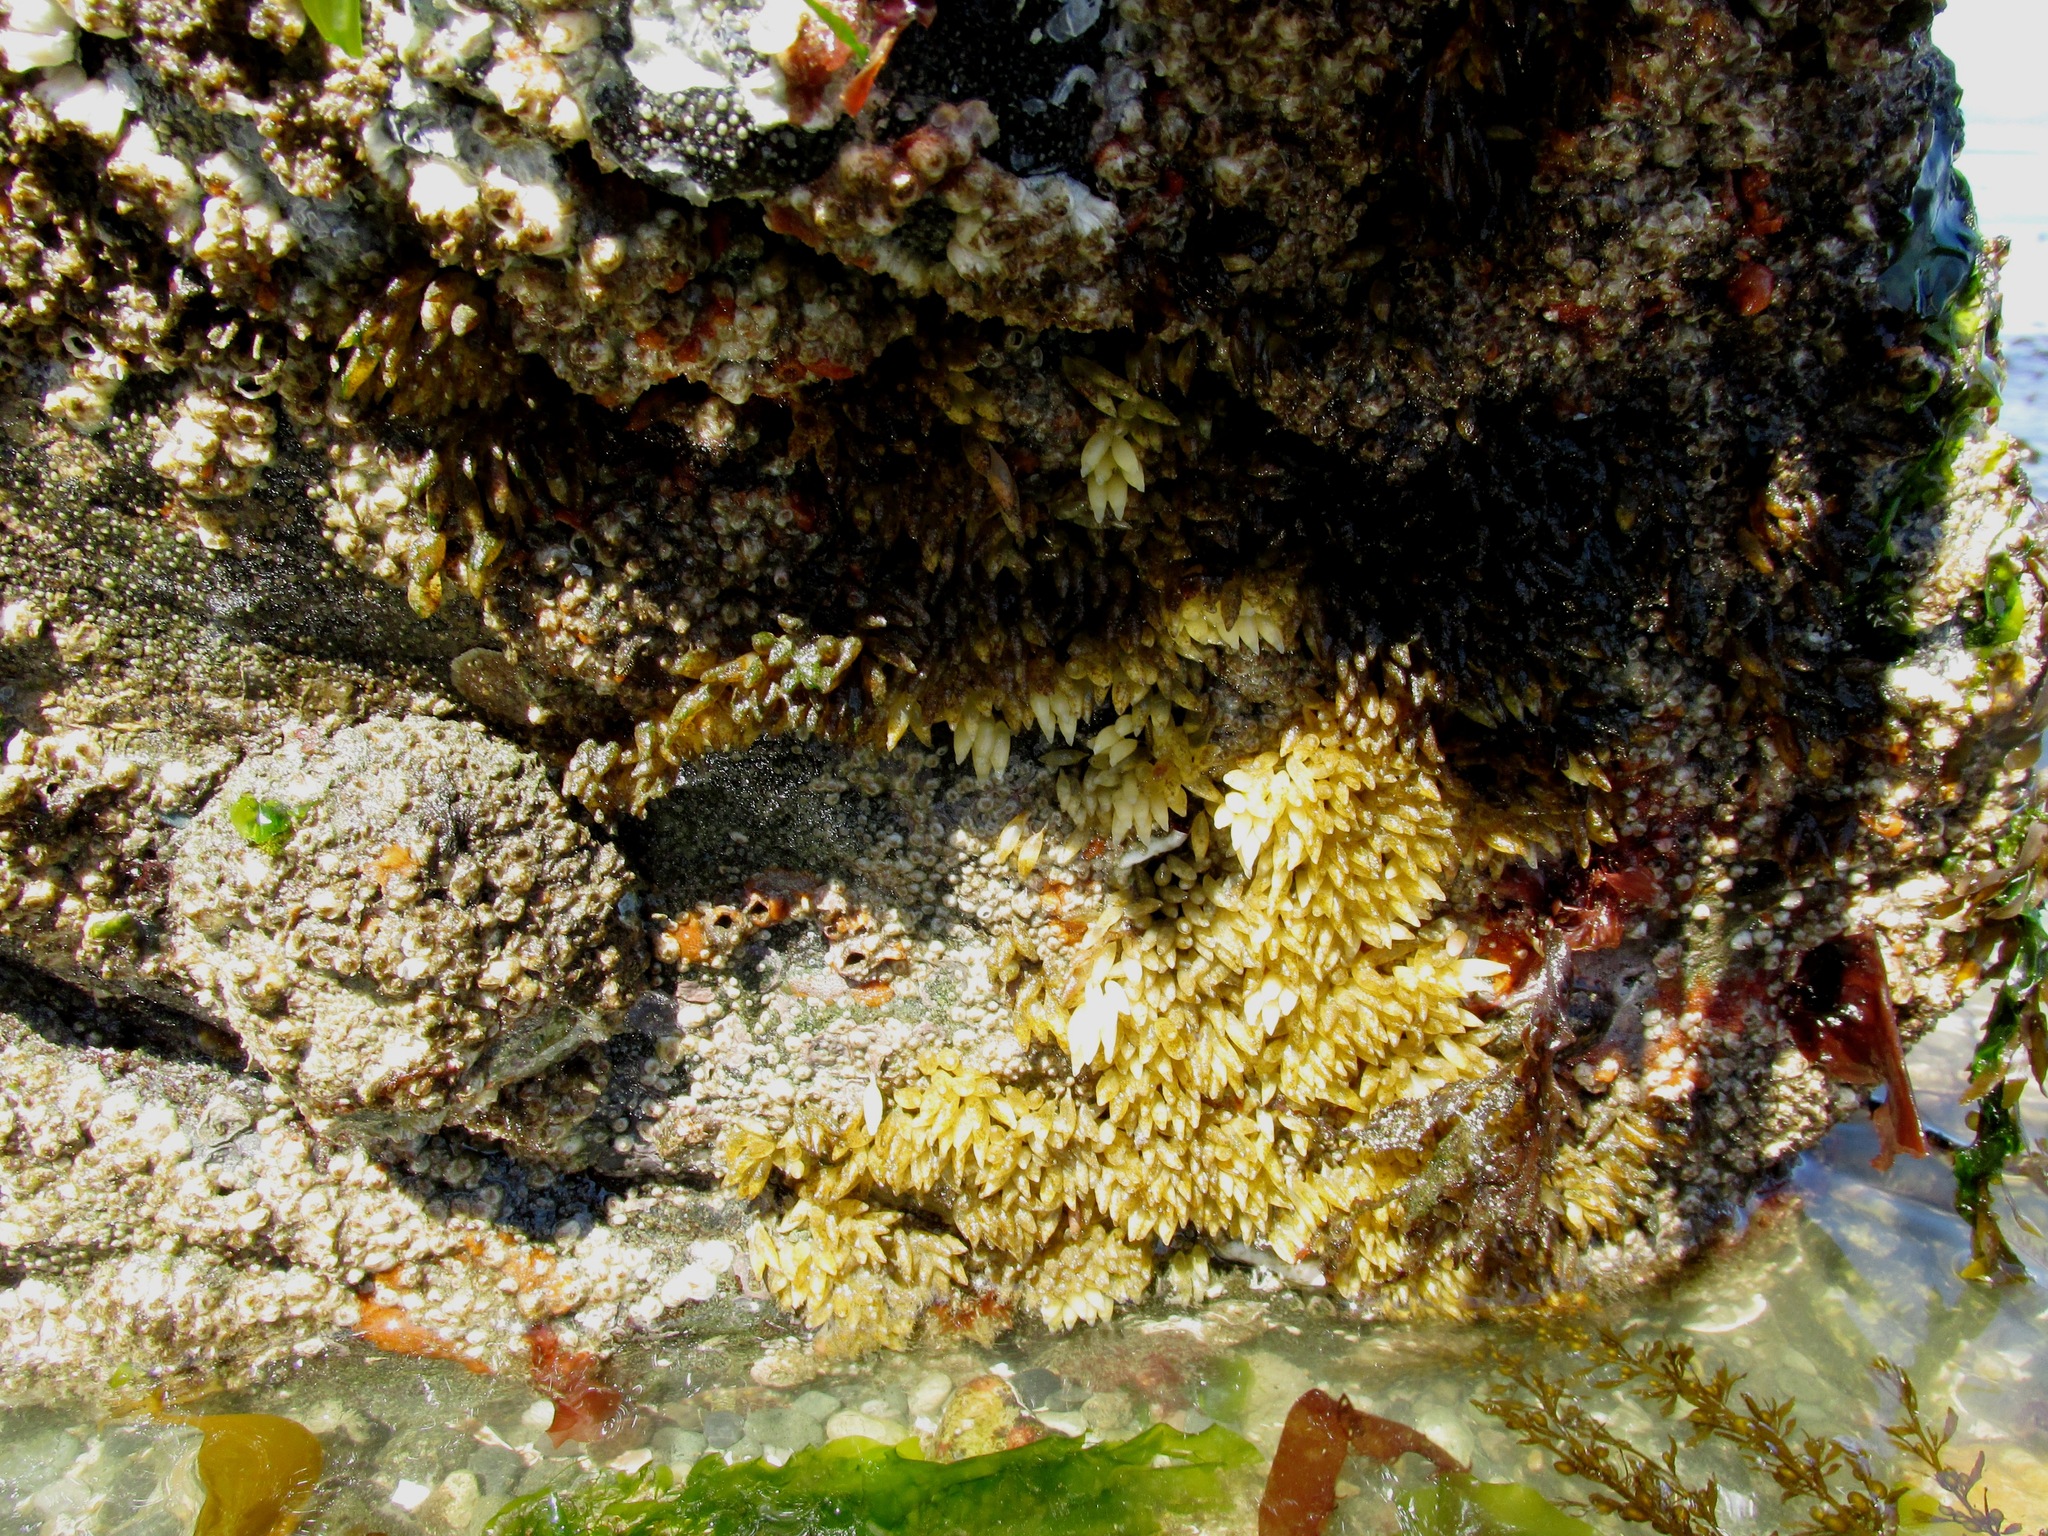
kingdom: Animalia
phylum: Mollusca
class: Gastropoda
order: Neogastropoda
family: Muricidae
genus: Nucella
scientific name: Nucella lamellosa
